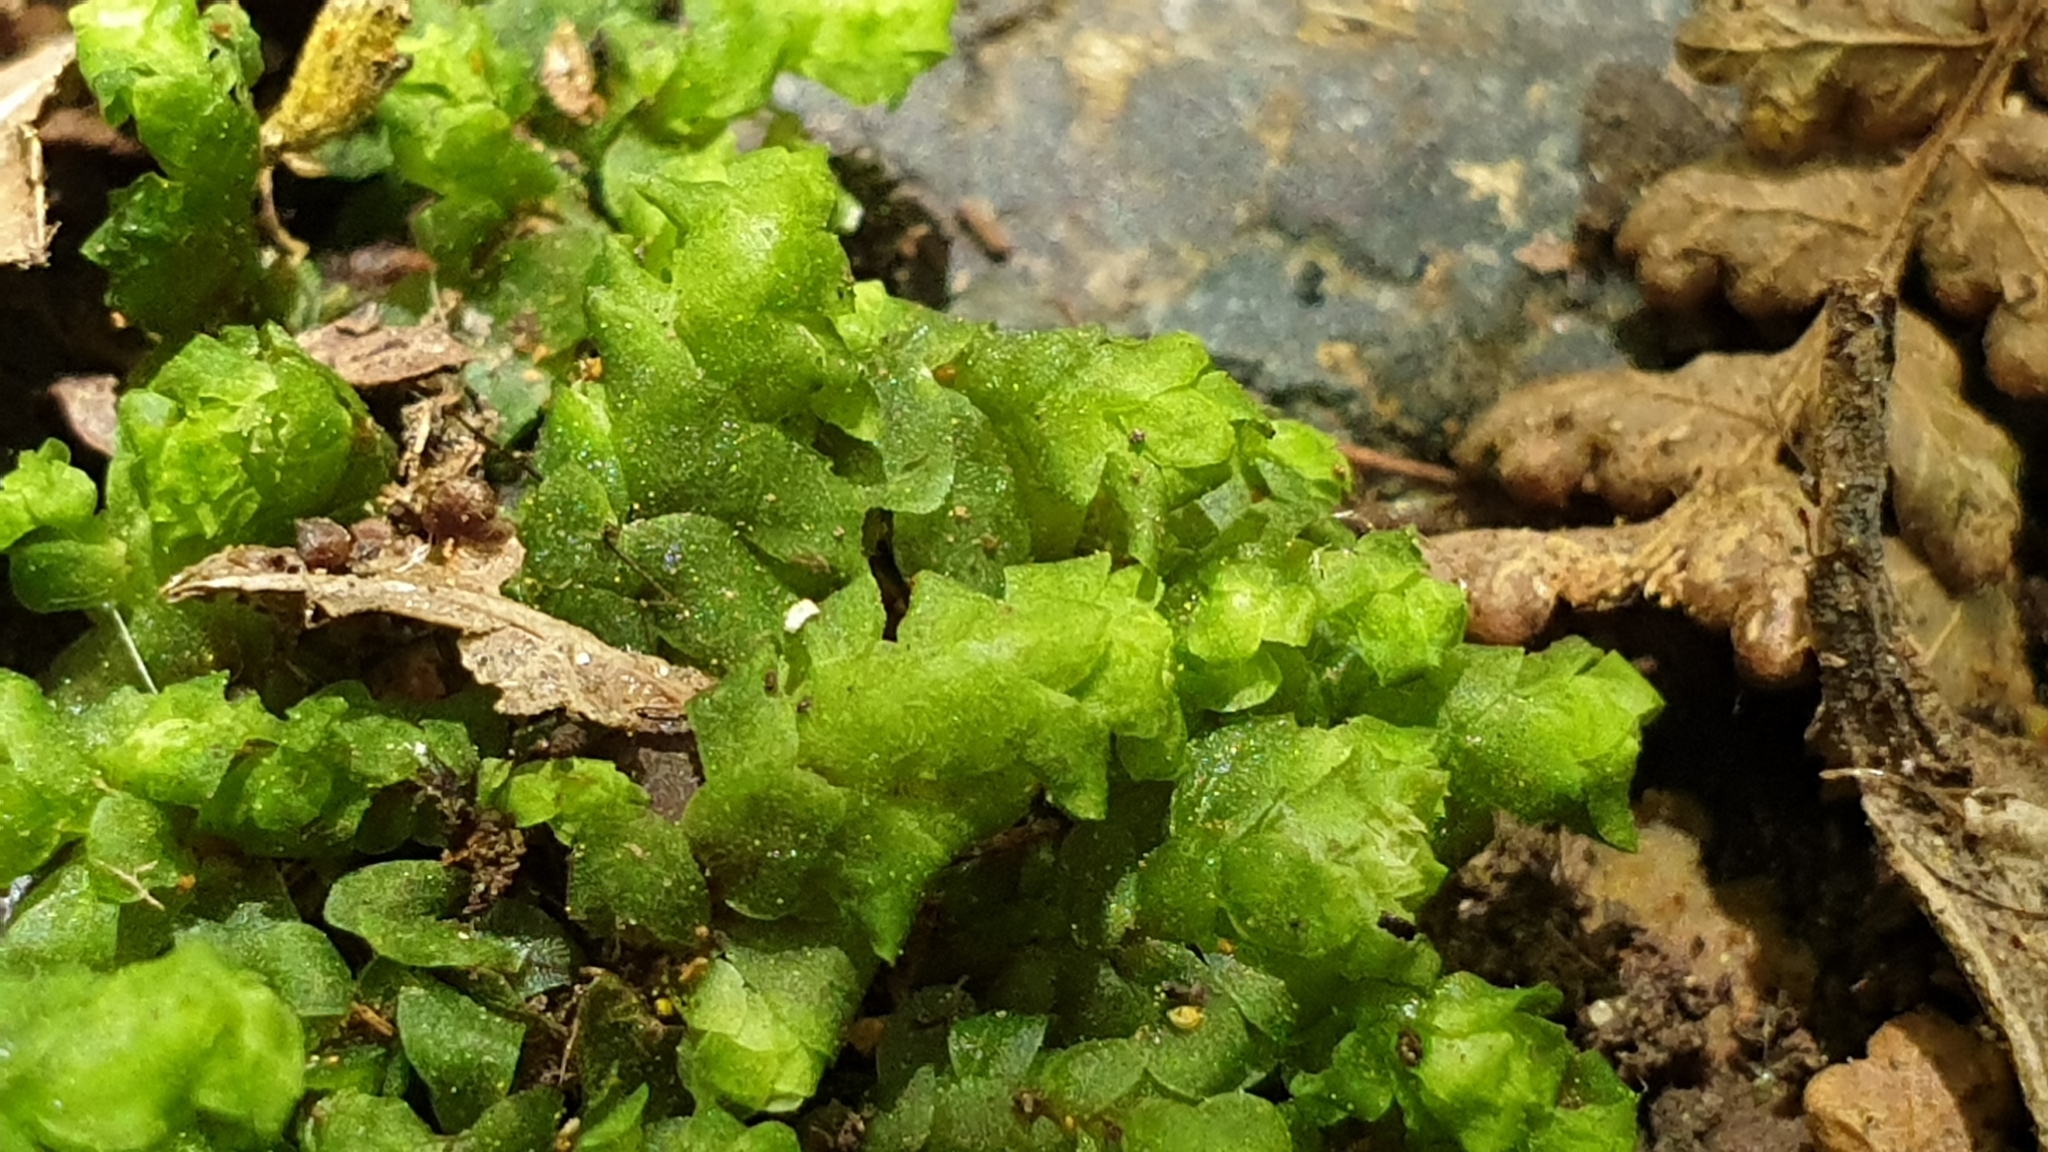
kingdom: Plantae
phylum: Bryophyta
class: Bryopsida
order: Hookeriales
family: Daltoniaceae
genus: Achrophyllum
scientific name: Achrophyllum dentatum
